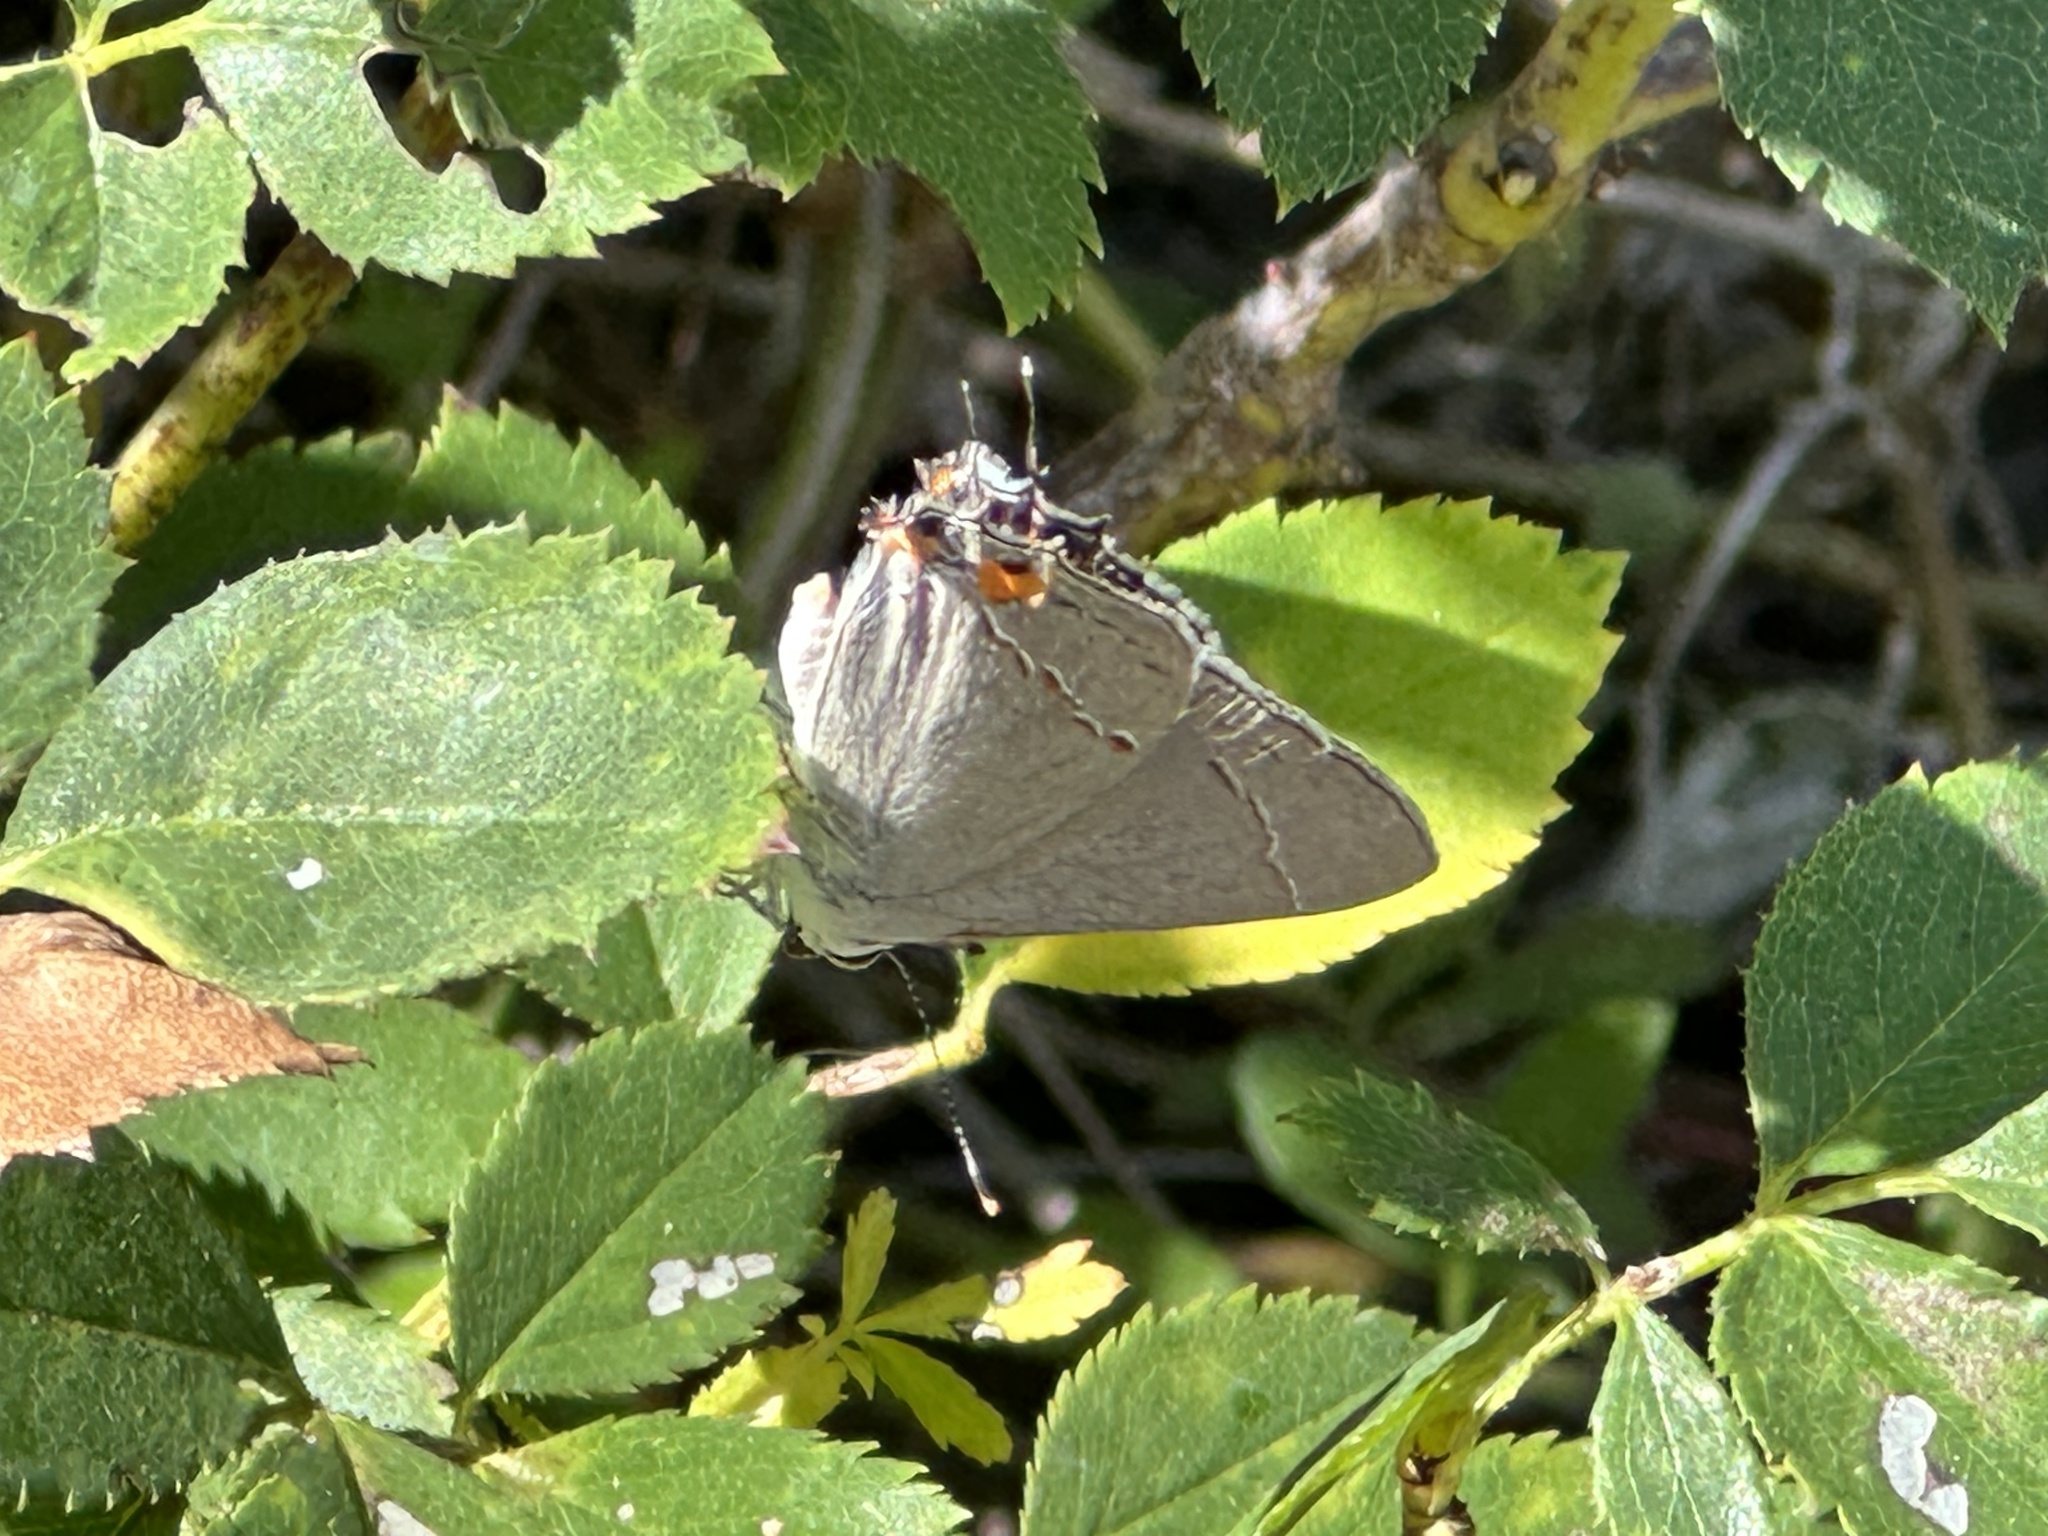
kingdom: Animalia
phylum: Arthropoda
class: Insecta
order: Lepidoptera
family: Lycaenidae
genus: Strymon
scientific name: Strymon melinus
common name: Gray hairstreak
